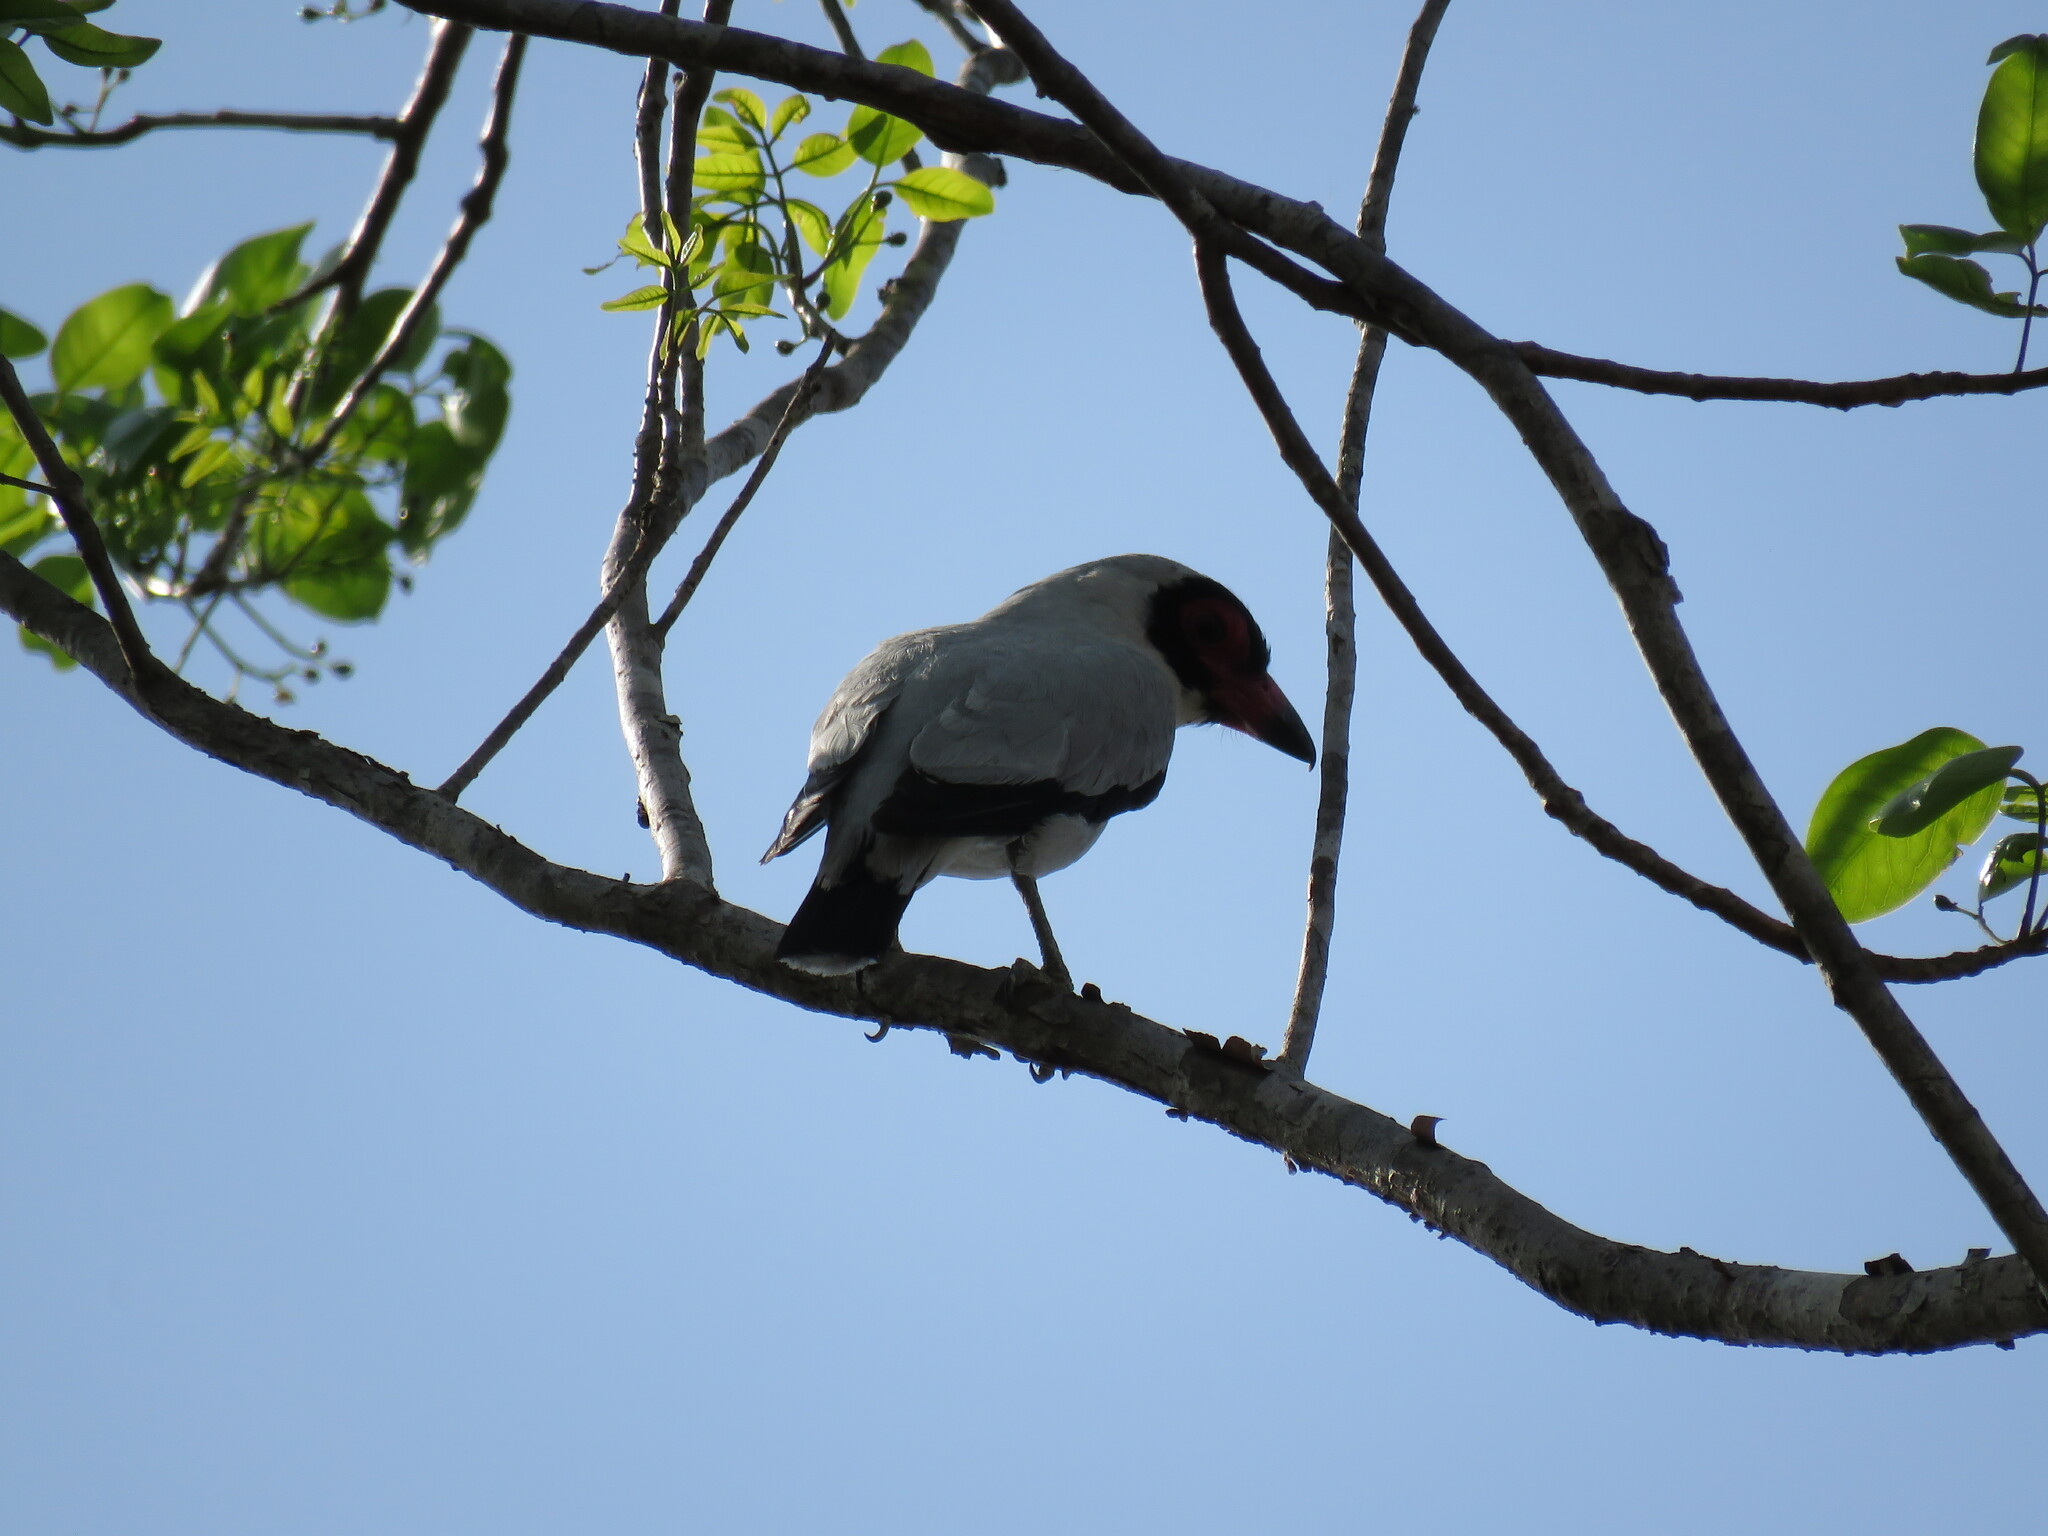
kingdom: Animalia
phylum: Chordata
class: Aves
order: Passeriformes
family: Cotingidae
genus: Tityra
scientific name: Tityra semifasciata
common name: Masked tityra
